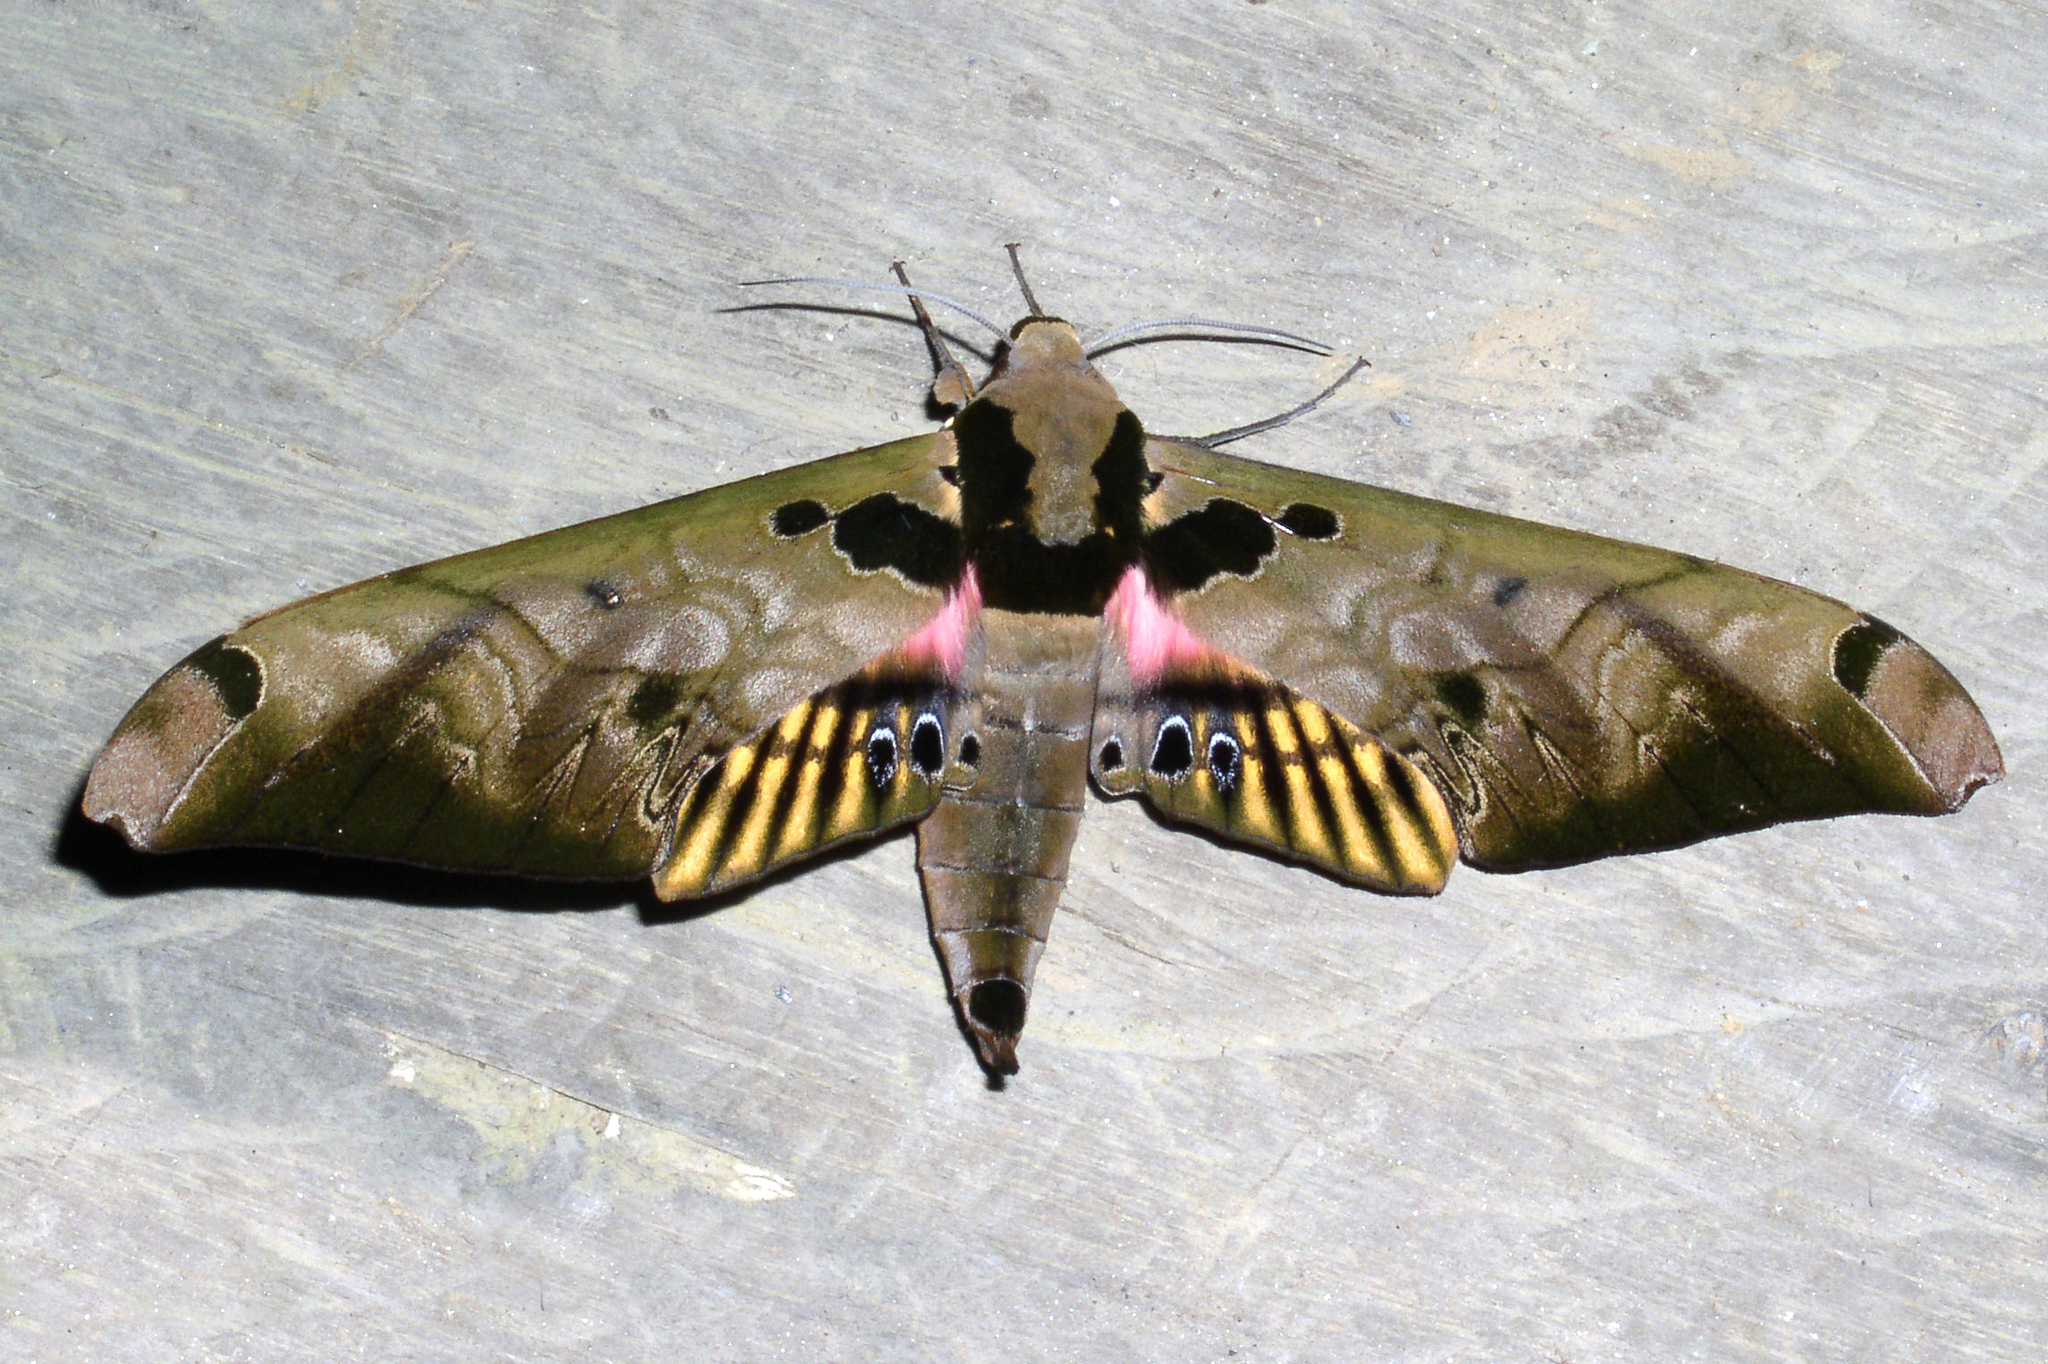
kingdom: Animalia
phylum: Arthropoda
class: Insecta
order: Lepidoptera
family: Sphingidae
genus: Adhemarius
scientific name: Adhemarius sexoculata
